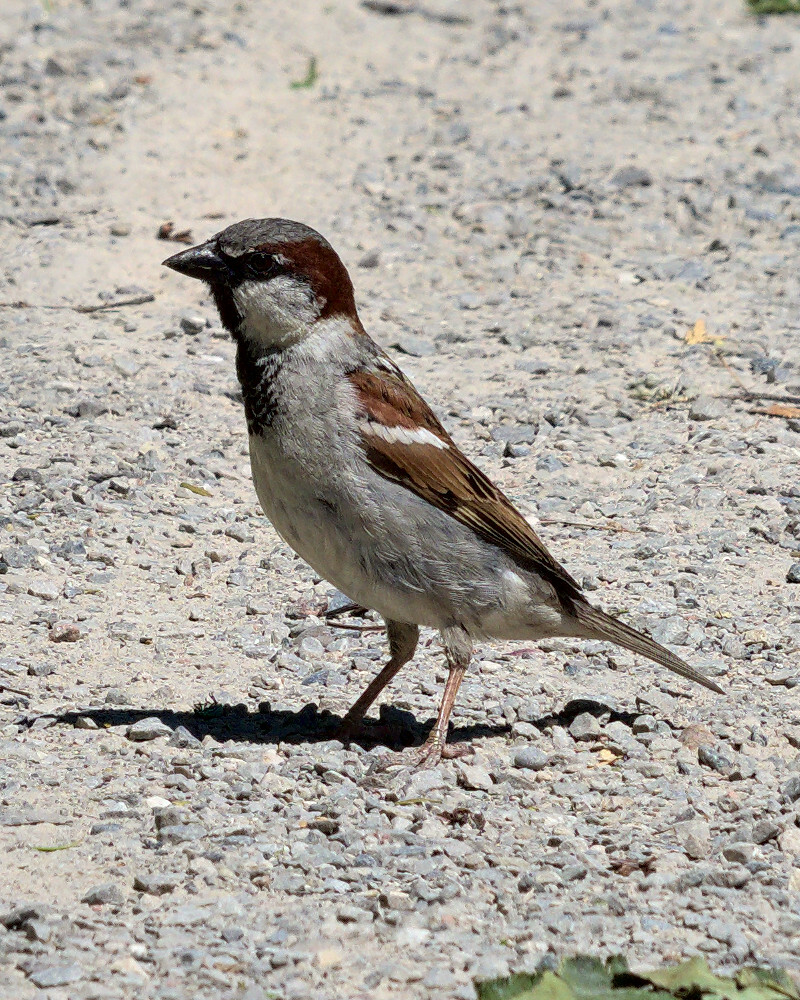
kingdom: Animalia
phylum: Chordata
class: Aves
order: Passeriformes
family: Passeridae
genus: Passer
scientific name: Passer domesticus
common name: House sparrow
